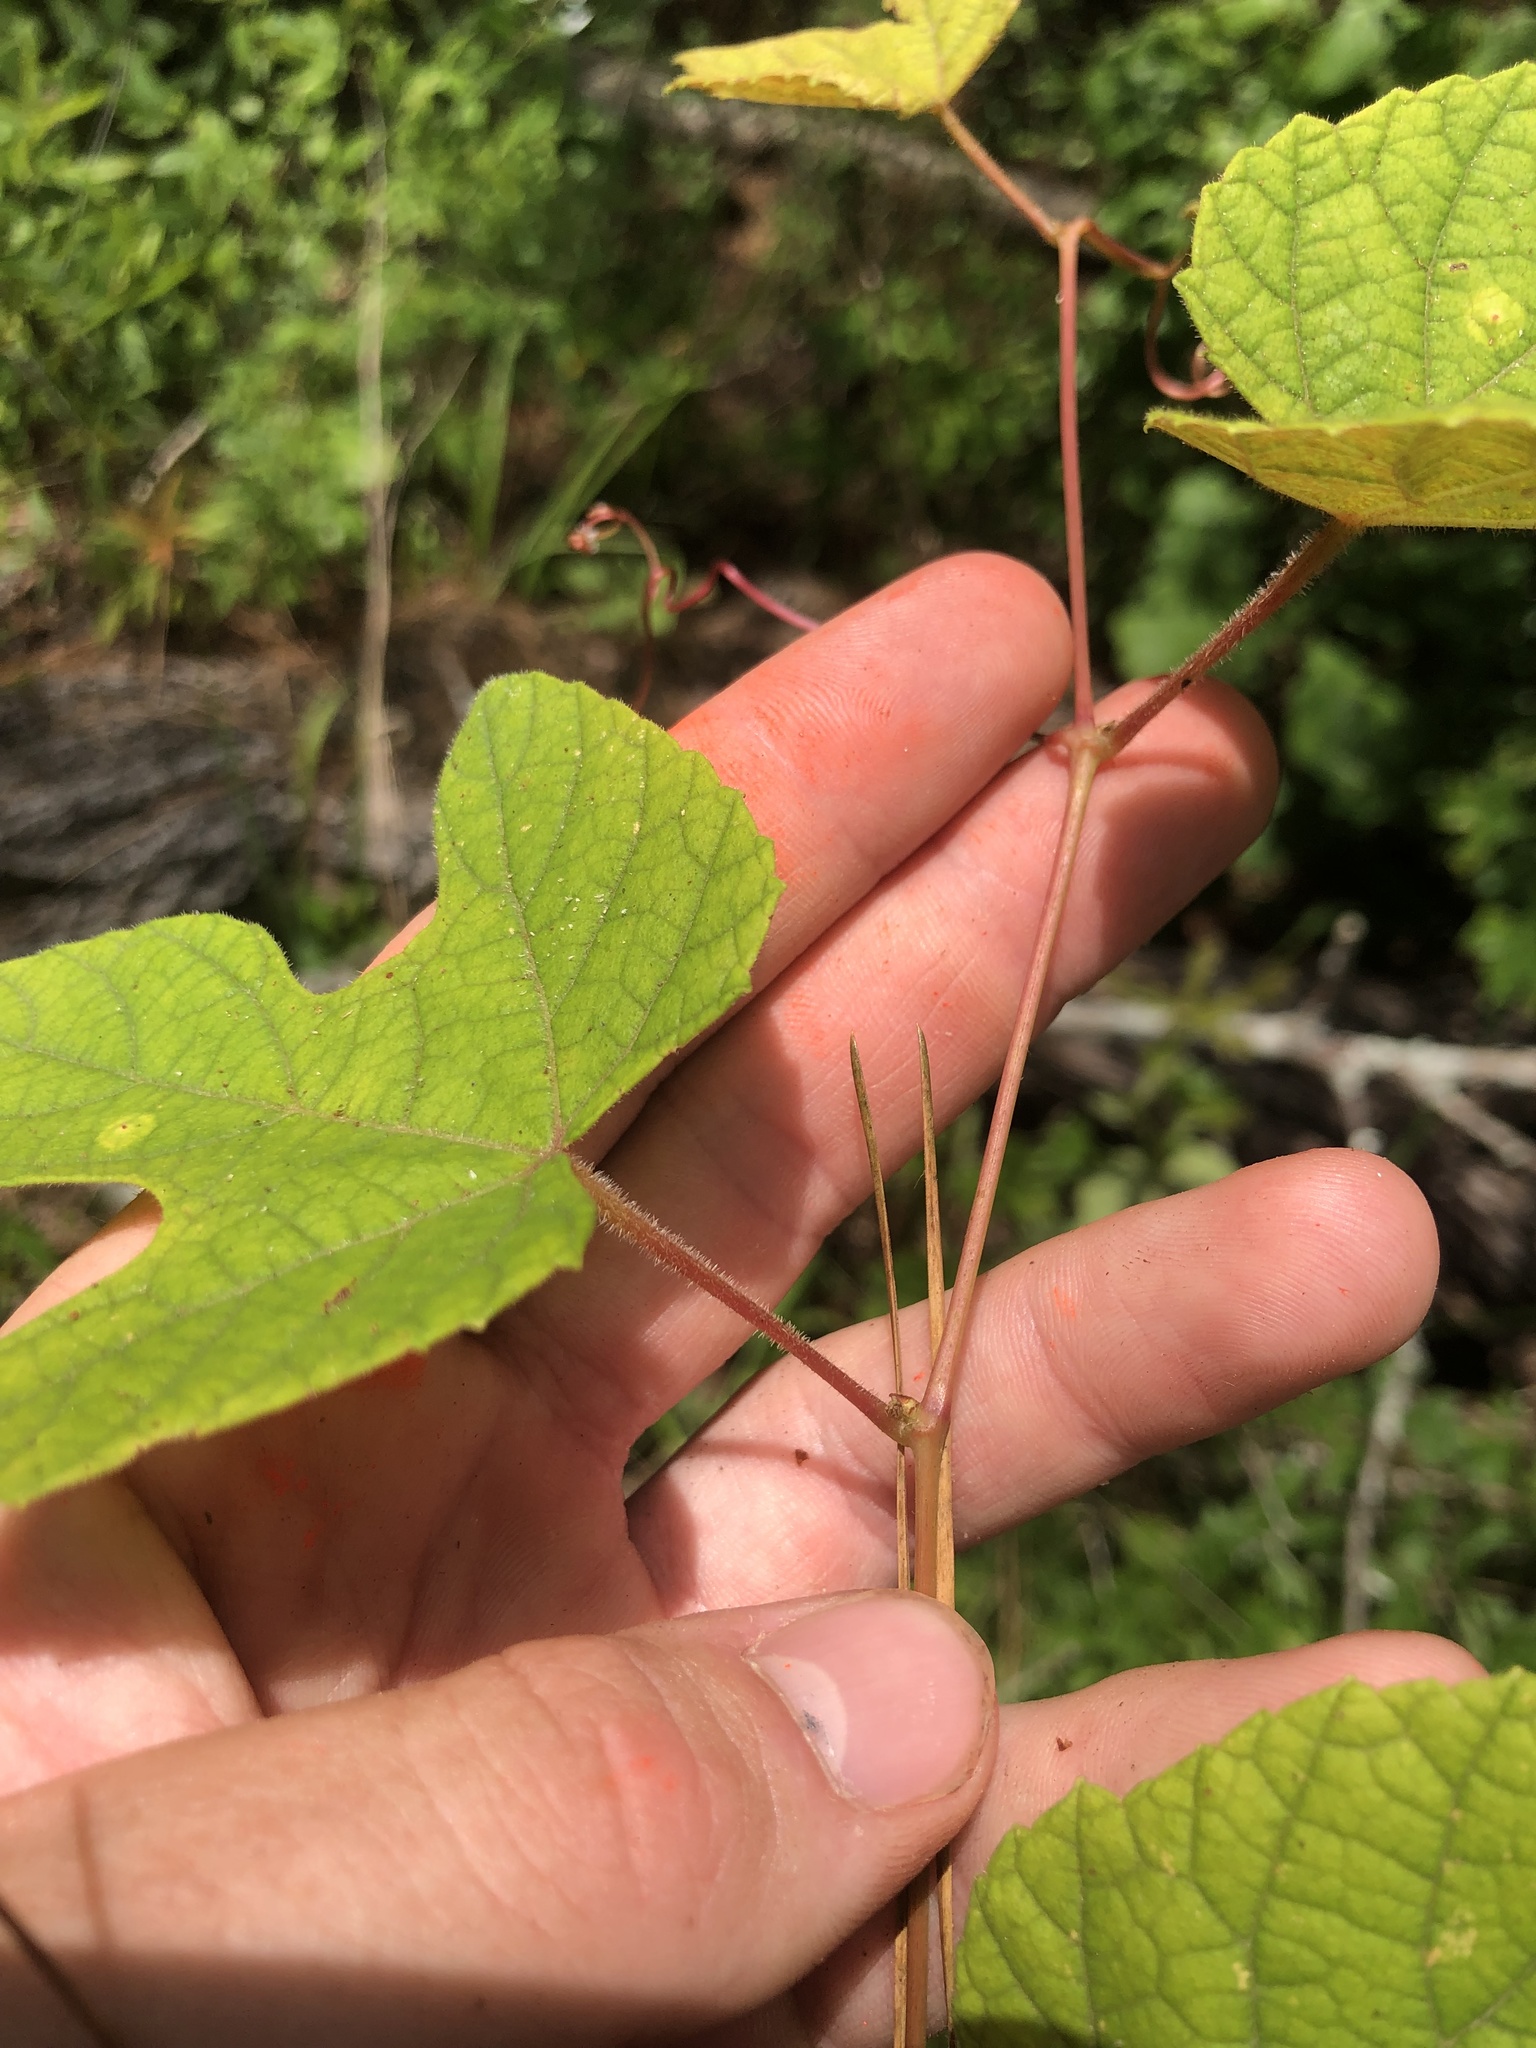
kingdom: Plantae
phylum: Tracheophyta
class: Magnoliopsida
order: Vitales
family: Vitaceae
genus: Vitis
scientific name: Vitis aestivalis
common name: Pigeon grape
